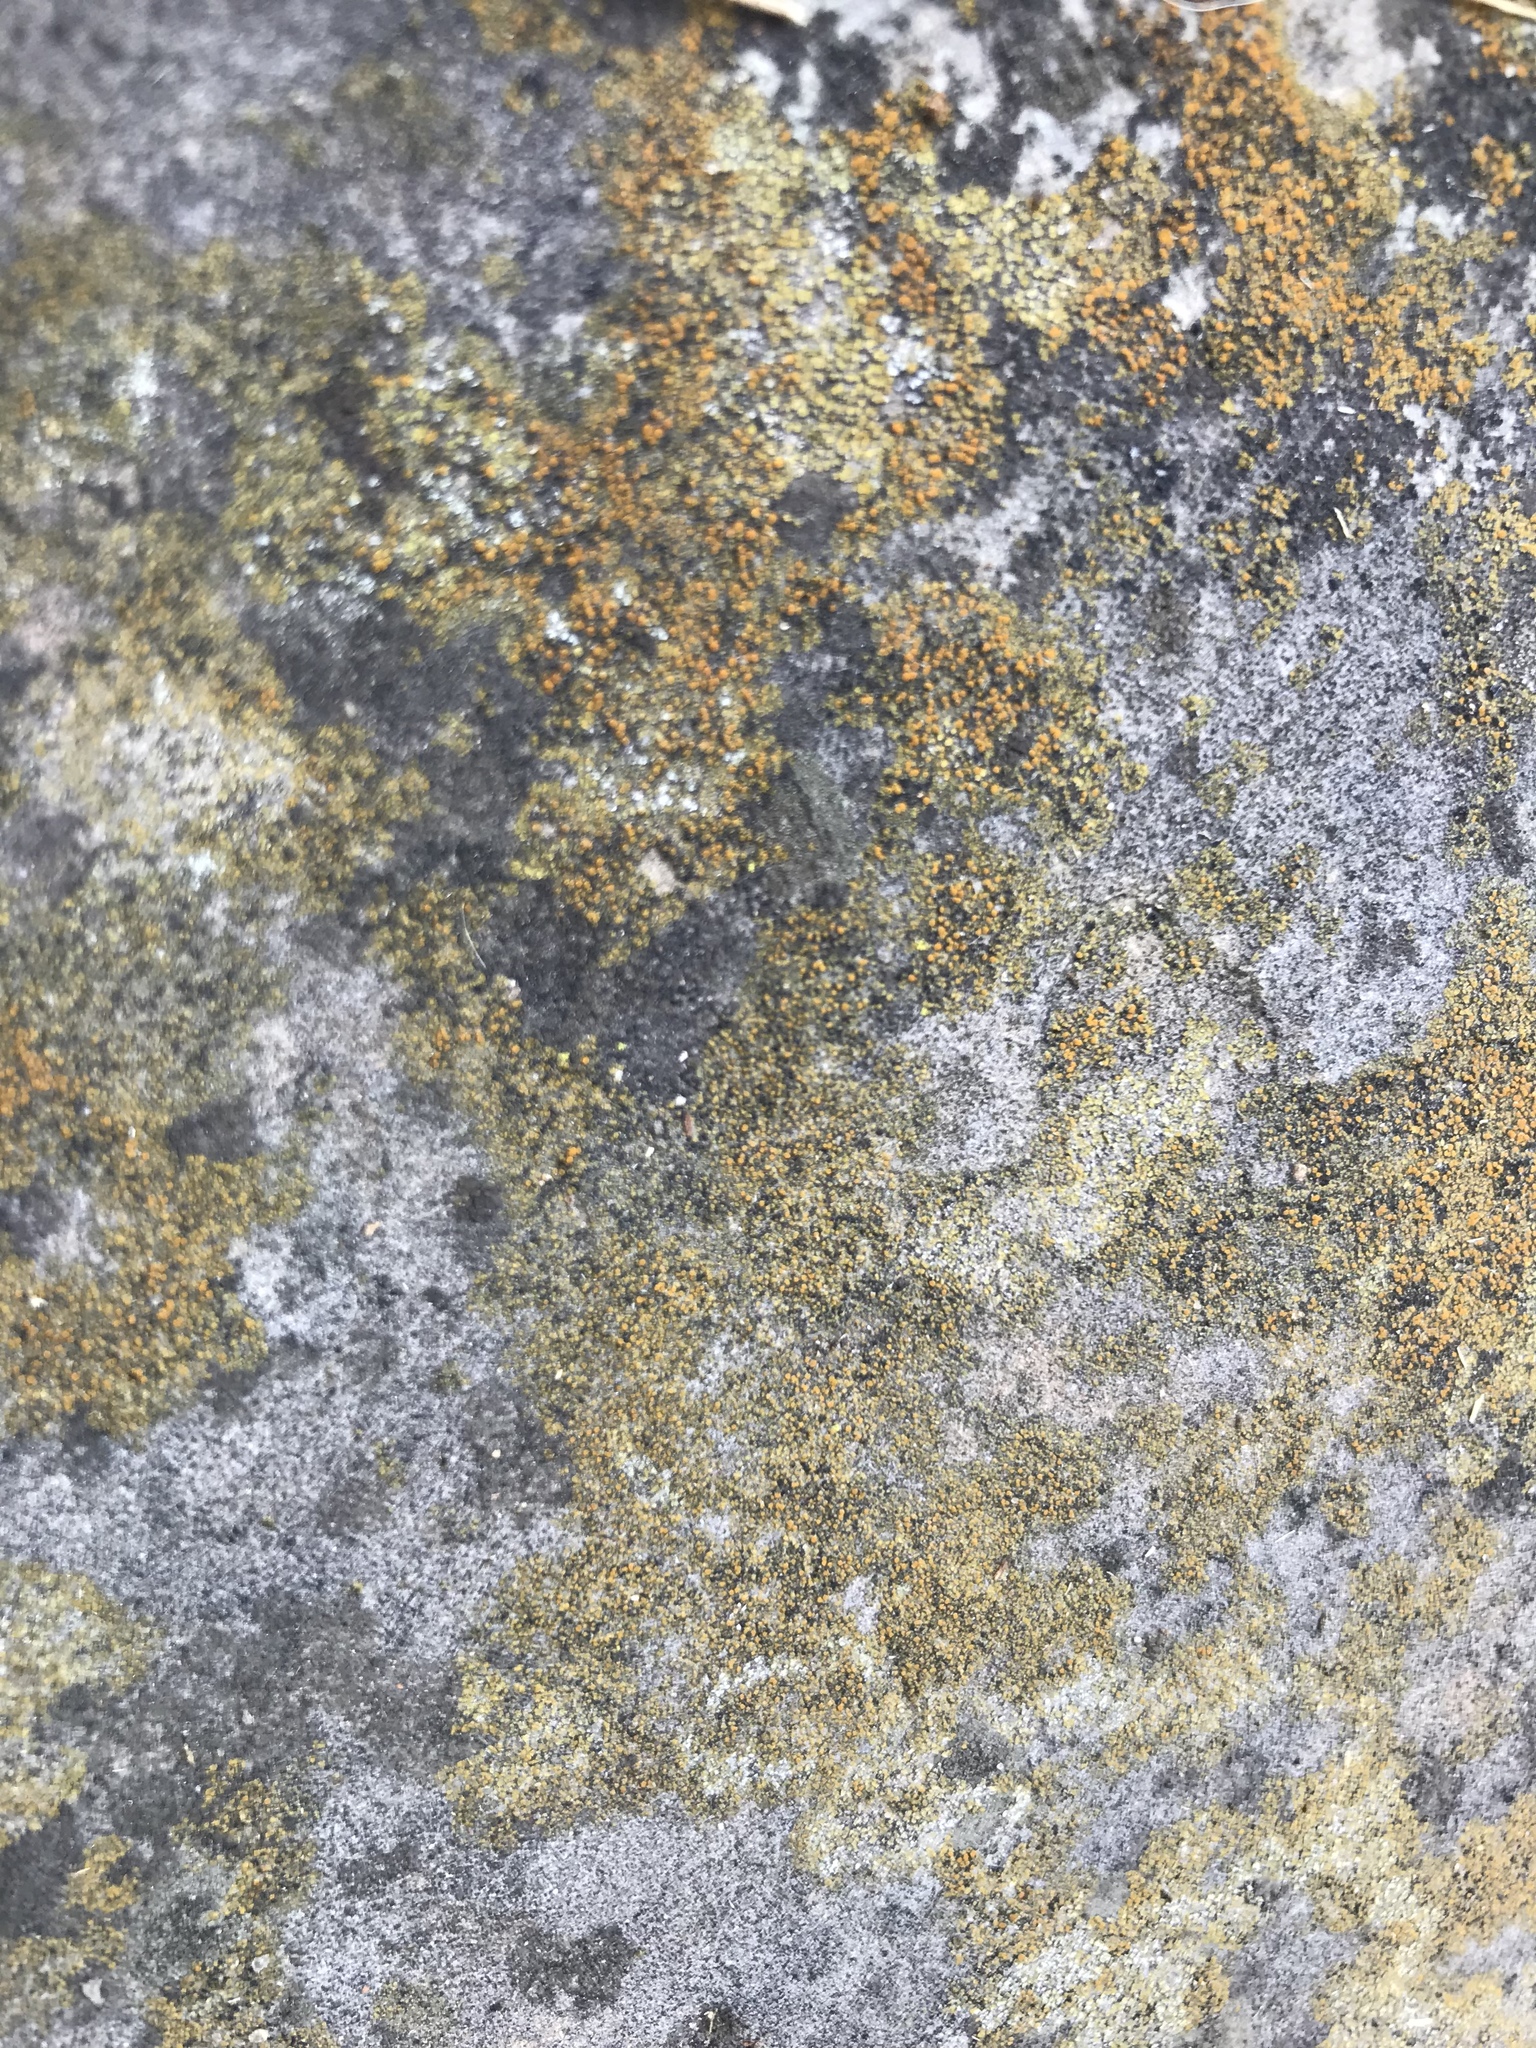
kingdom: Fungi
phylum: Ascomycota
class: Lecanoromycetes
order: Teloschistales
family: Teloschistaceae
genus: Xanthocarpia
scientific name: Xanthocarpia feracissima
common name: Sidewalk firedot
